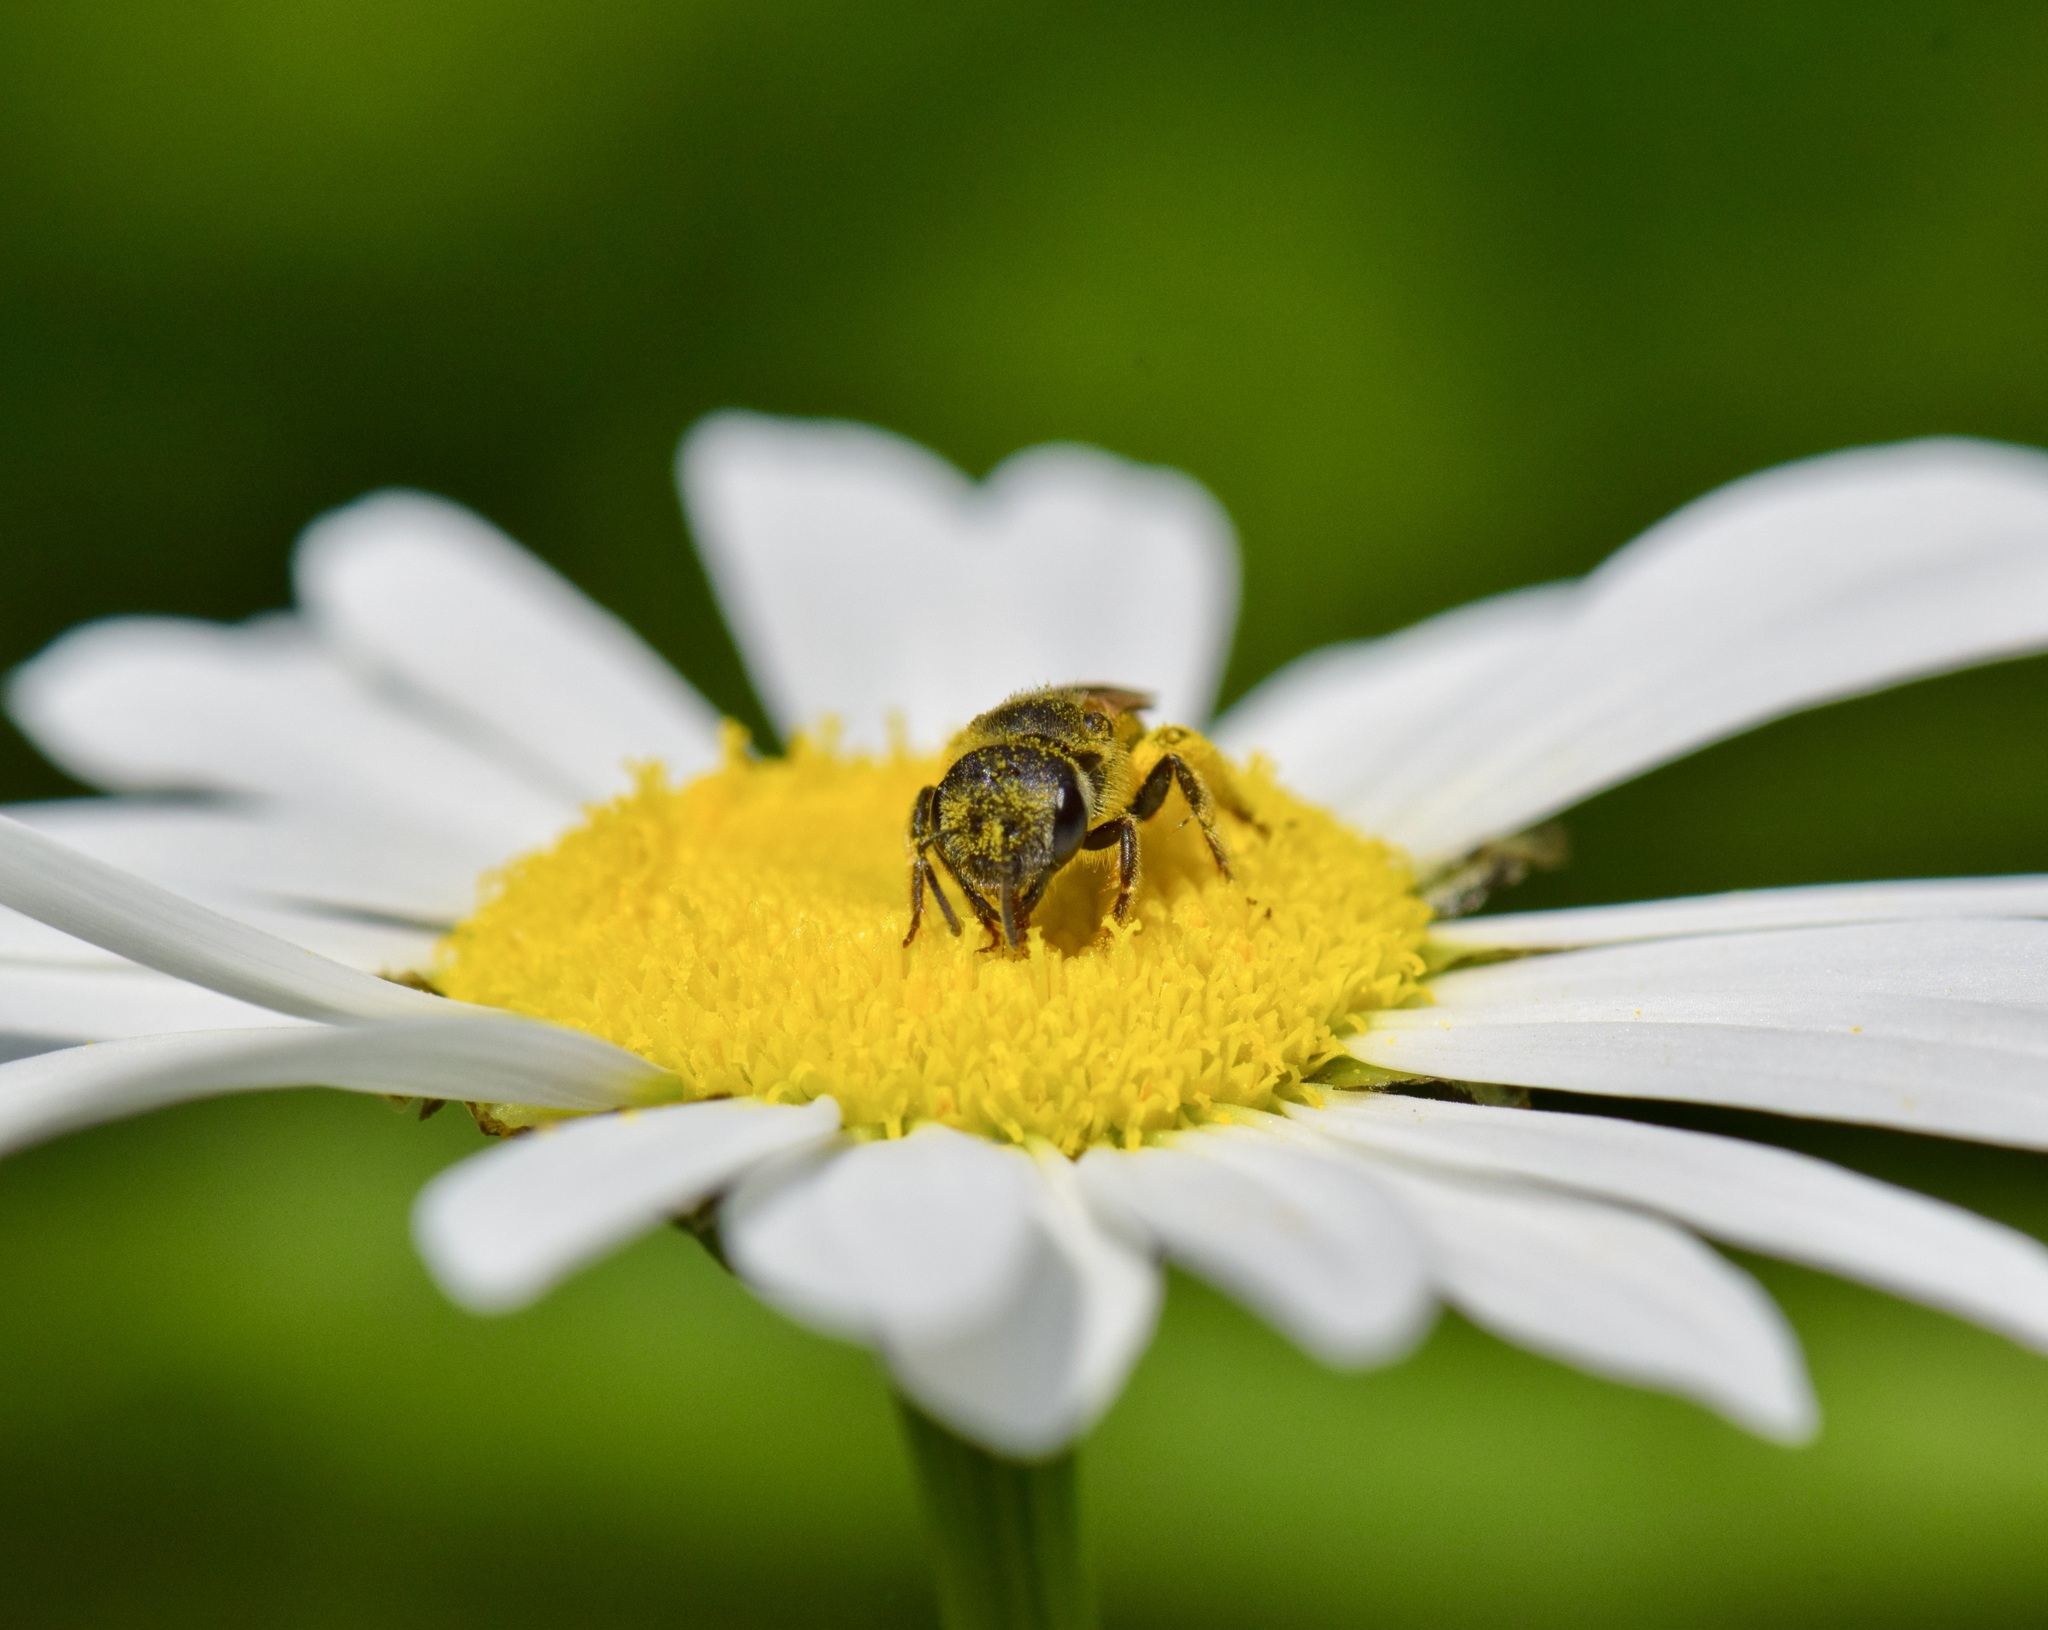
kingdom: Animalia
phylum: Arthropoda
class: Insecta
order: Hymenoptera
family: Halictidae
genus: Halictus
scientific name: Halictus ligatus
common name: Ligated furrow bee
